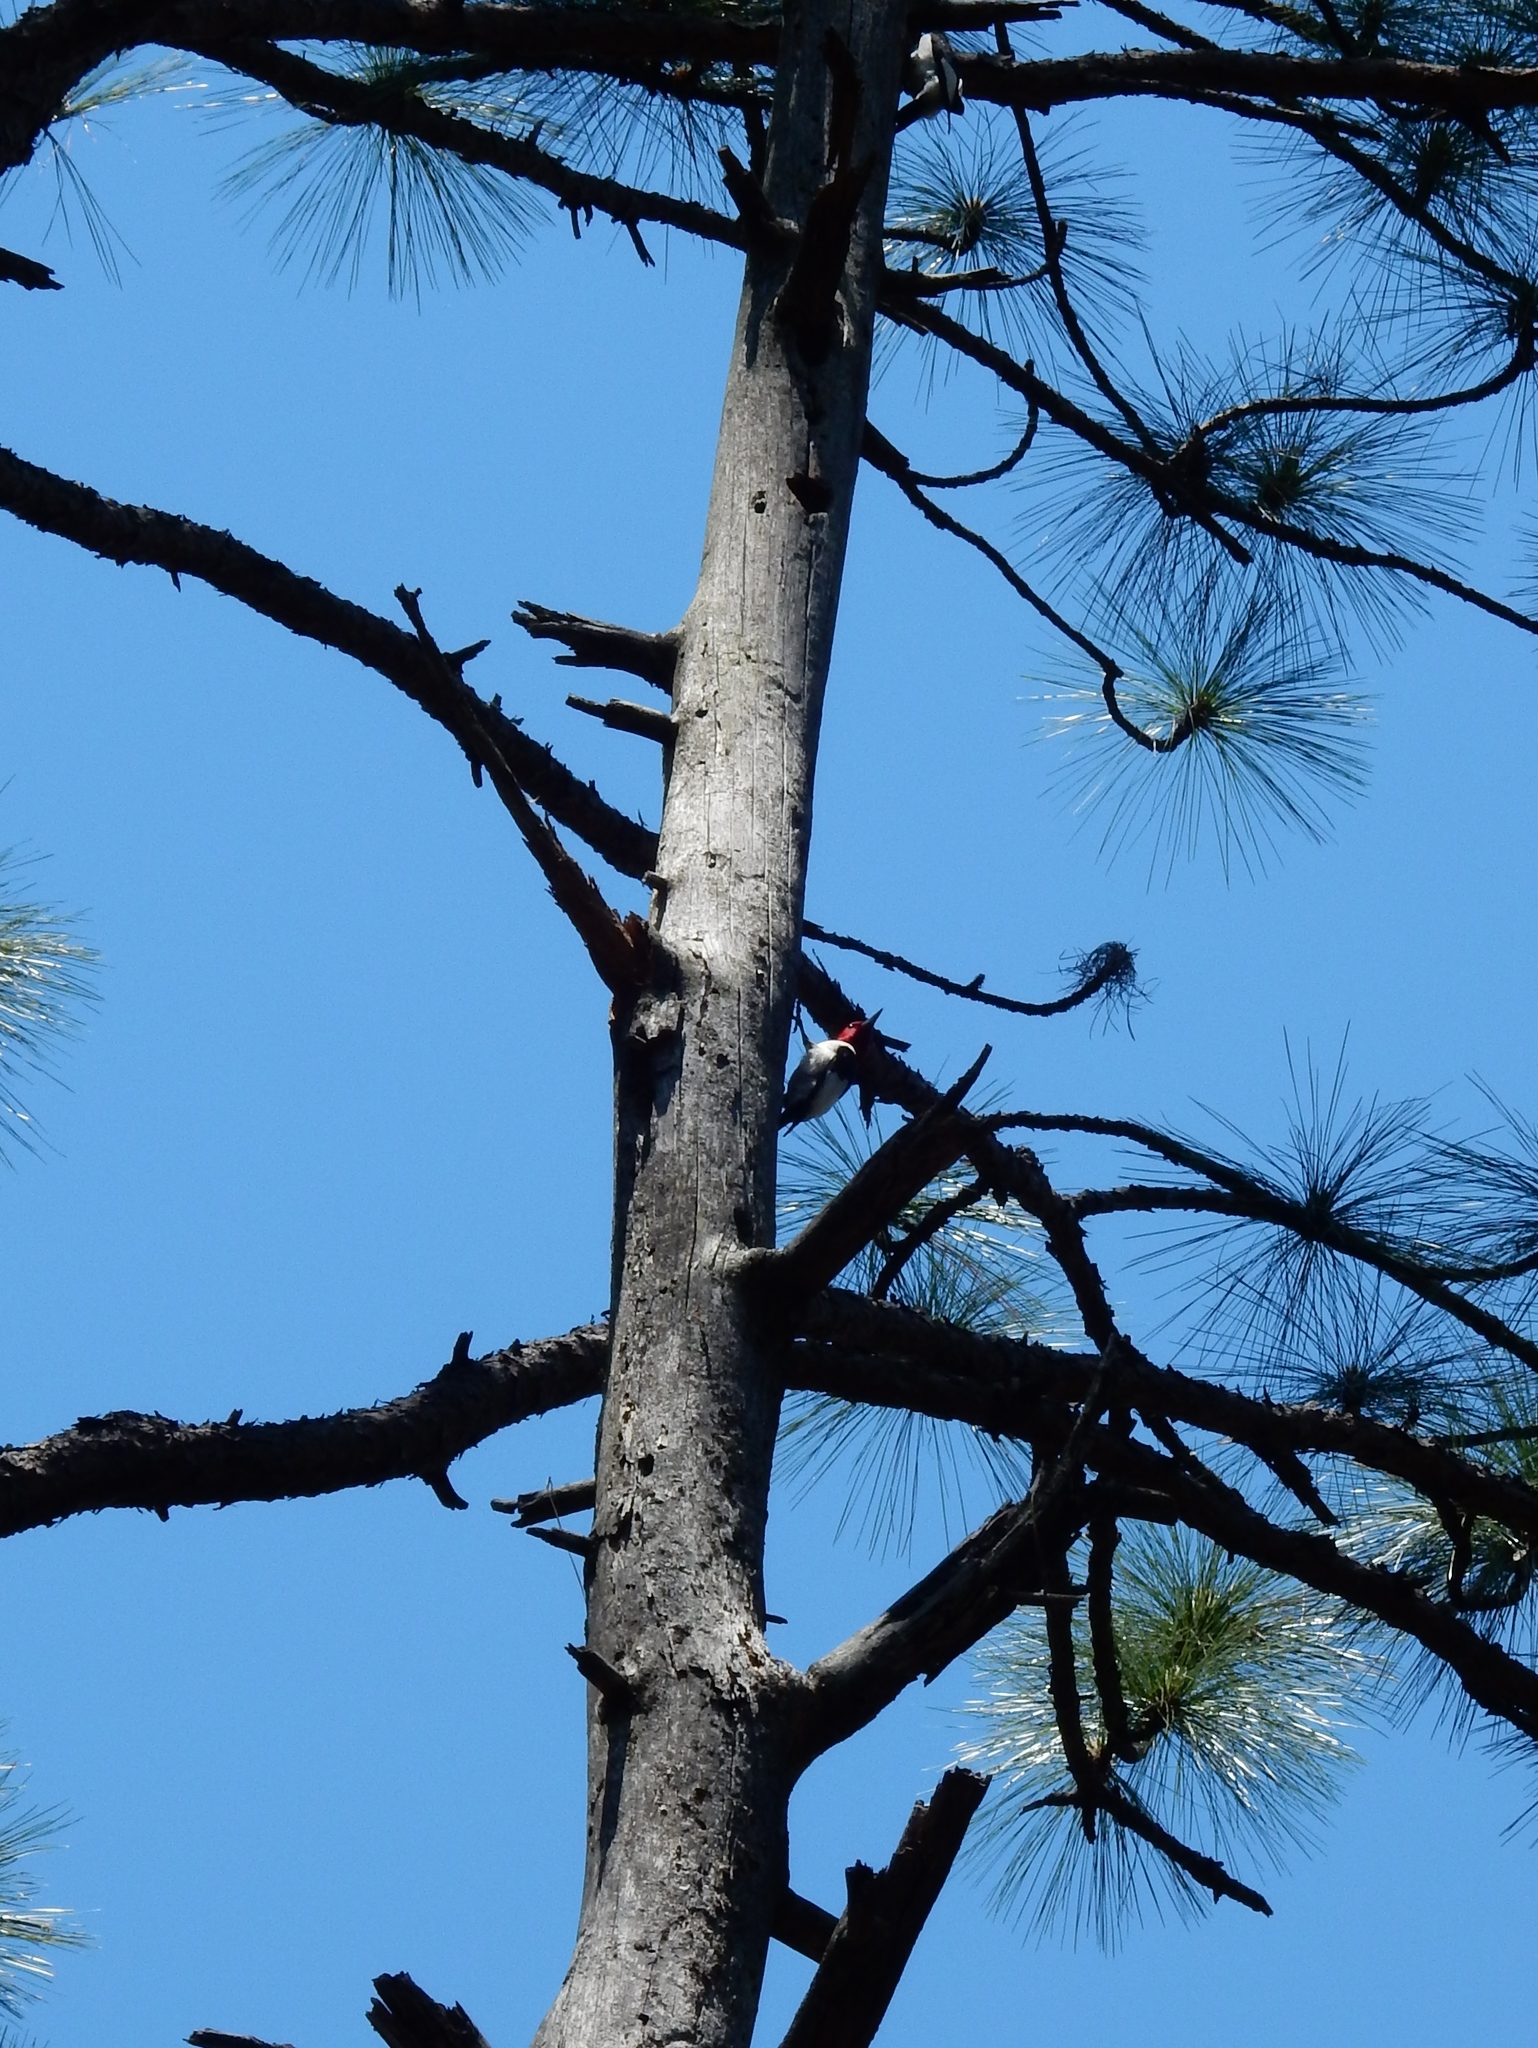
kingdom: Animalia
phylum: Chordata
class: Aves
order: Piciformes
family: Picidae
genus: Melanerpes
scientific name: Melanerpes erythrocephalus
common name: Red-headed woodpecker
